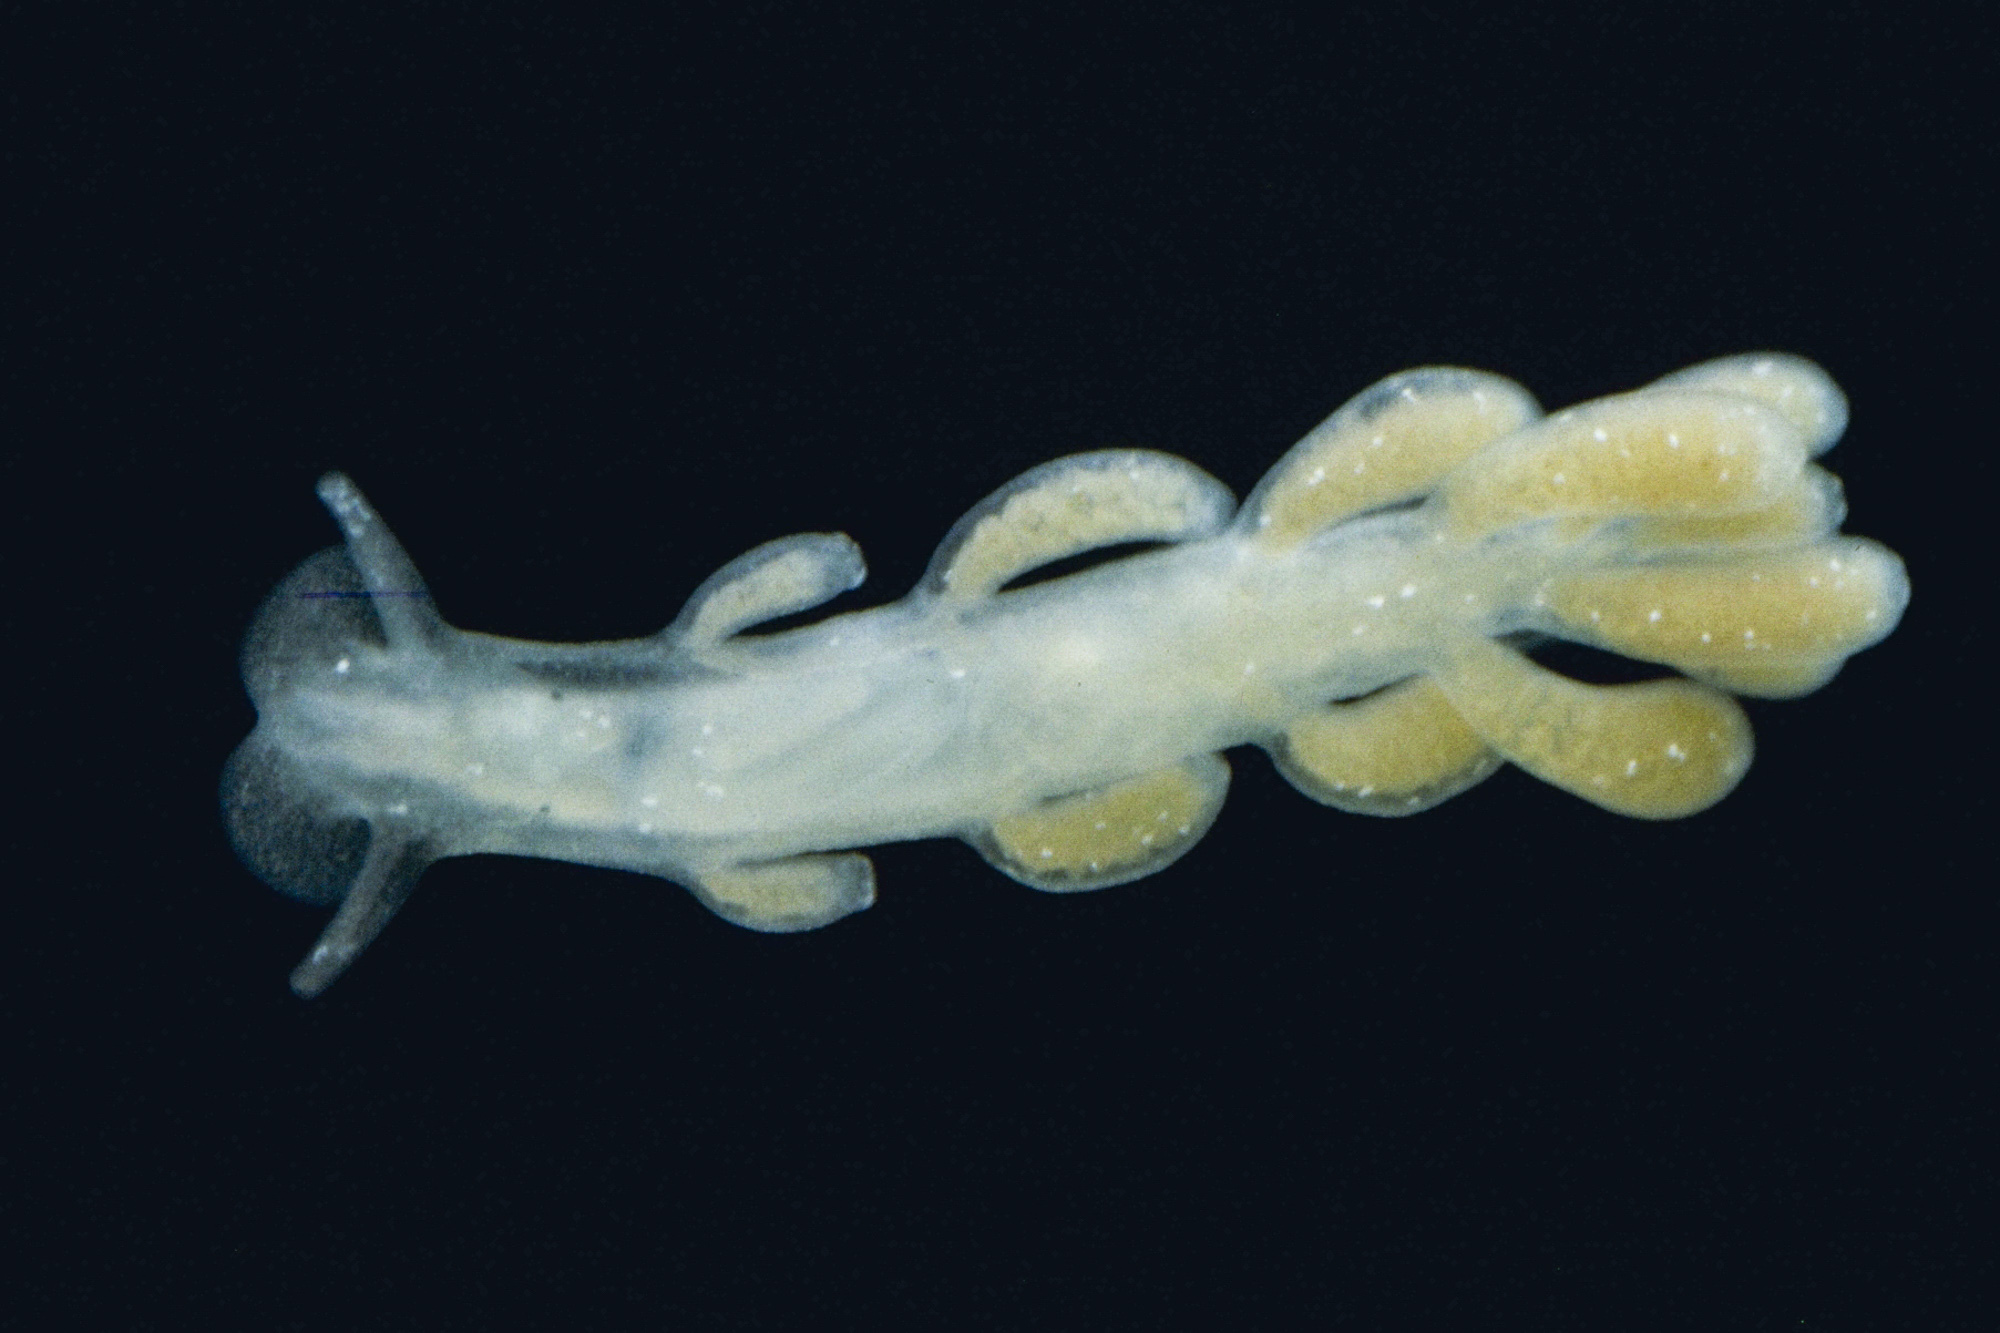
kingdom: Animalia
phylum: Mollusca
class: Gastropoda
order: Nudibranchia
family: Embletoniidae
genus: Embletonia
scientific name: Embletonia pulchra
